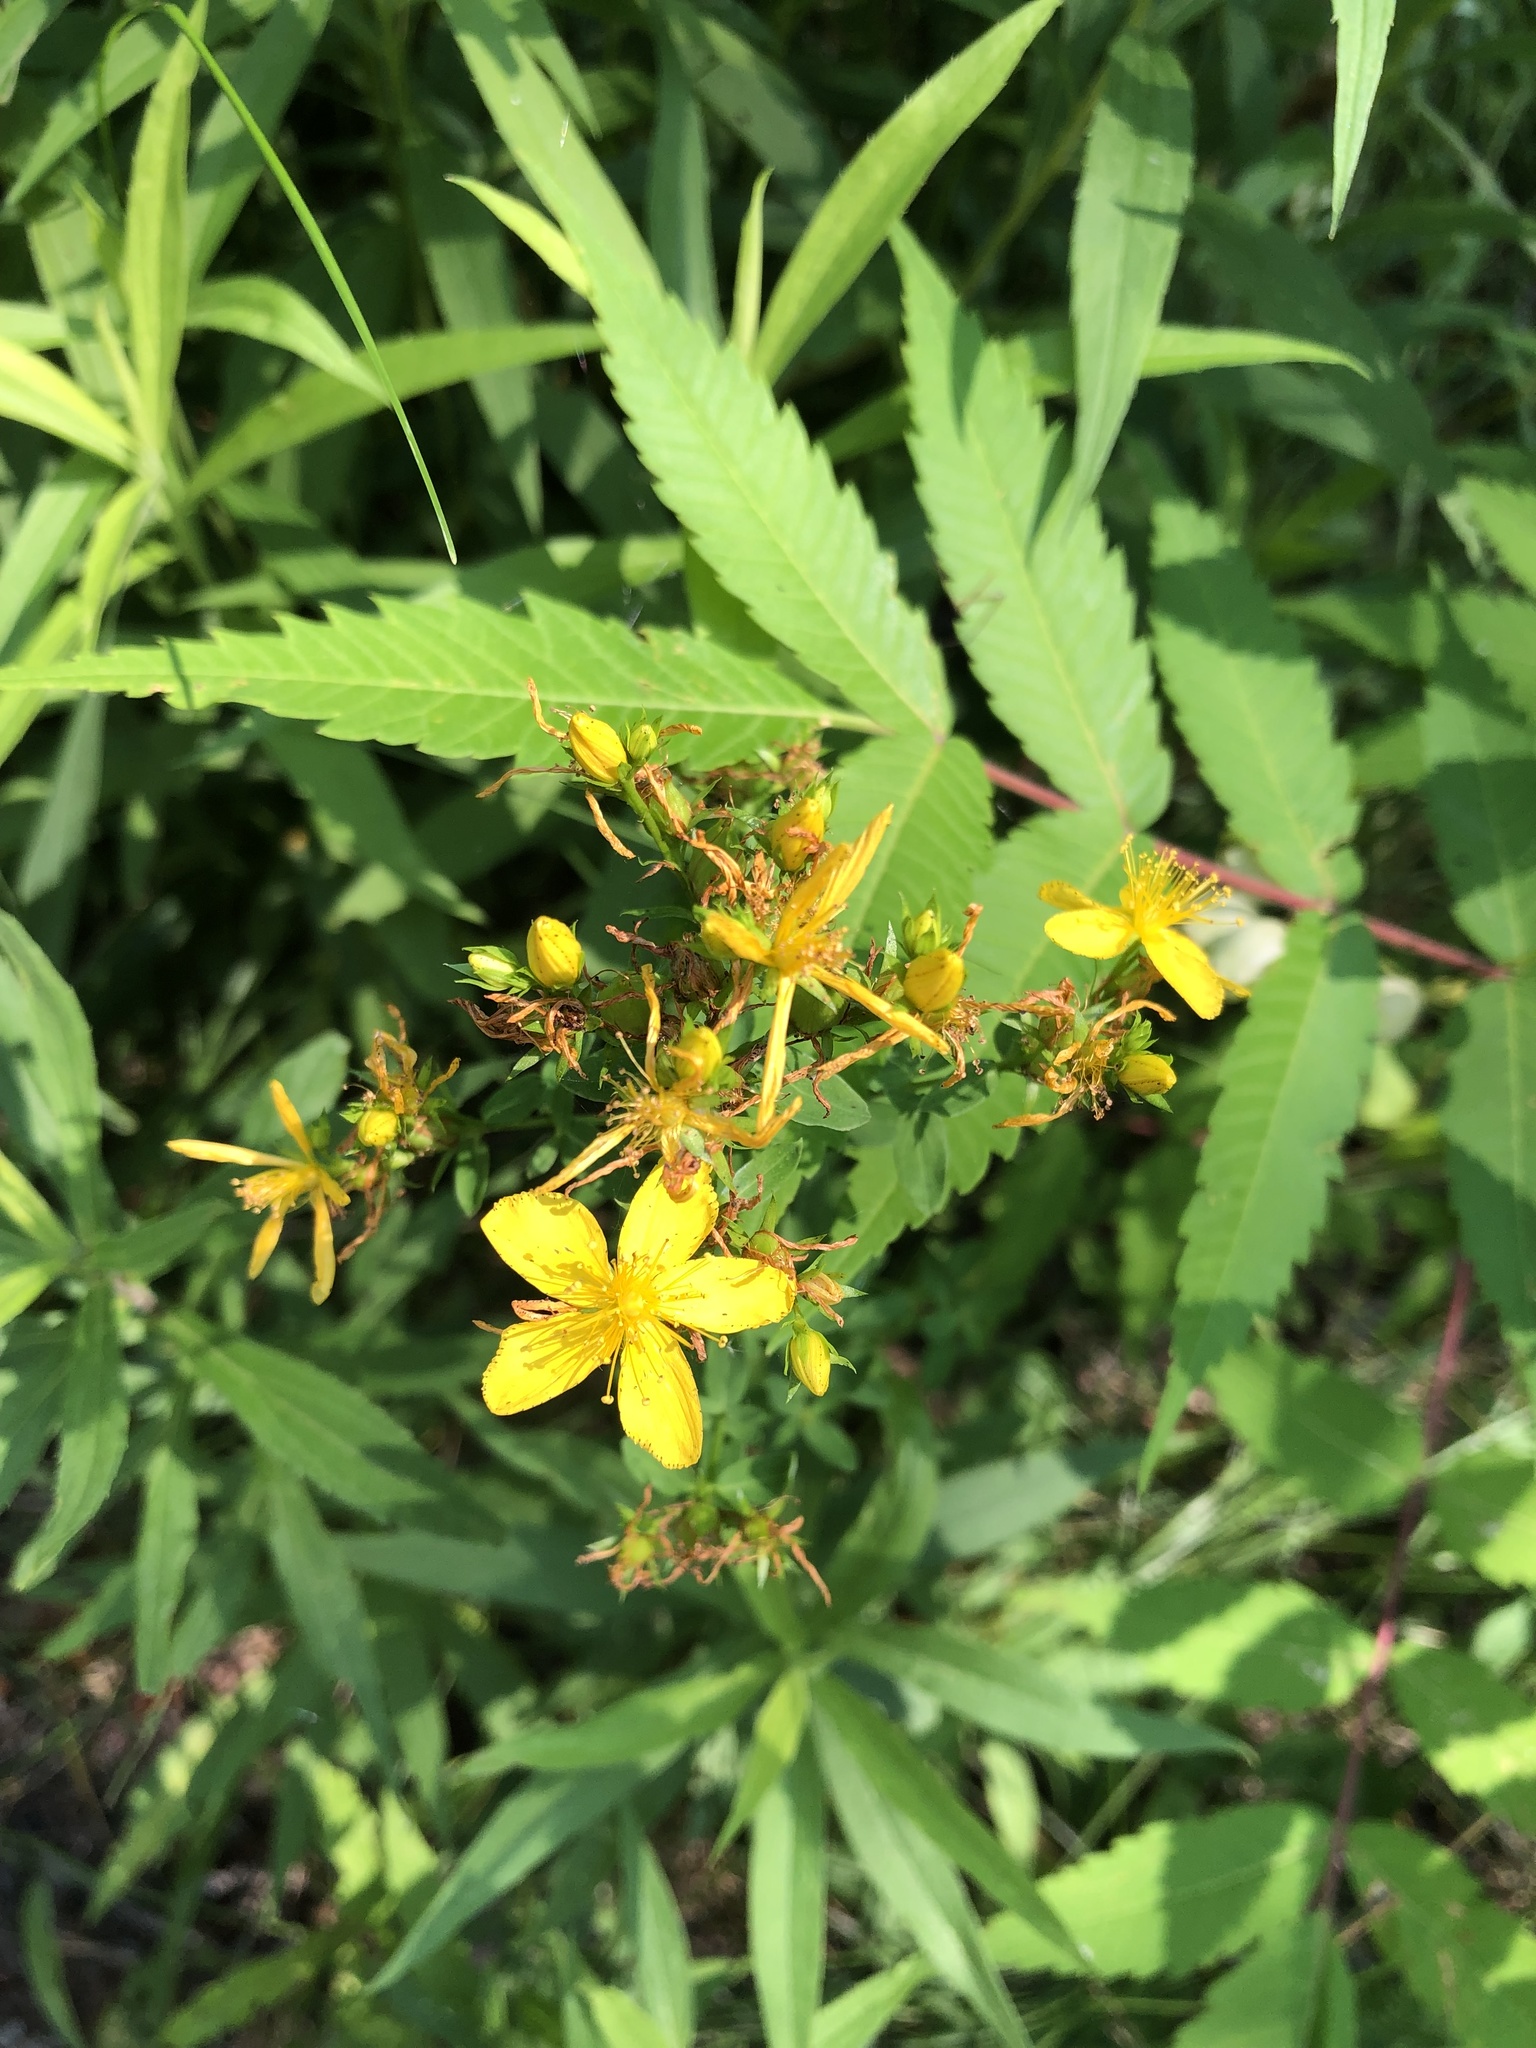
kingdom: Plantae
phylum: Tracheophyta
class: Magnoliopsida
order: Malpighiales
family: Hypericaceae
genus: Hypericum
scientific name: Hypericum perforatum
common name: Common st. johnswort
